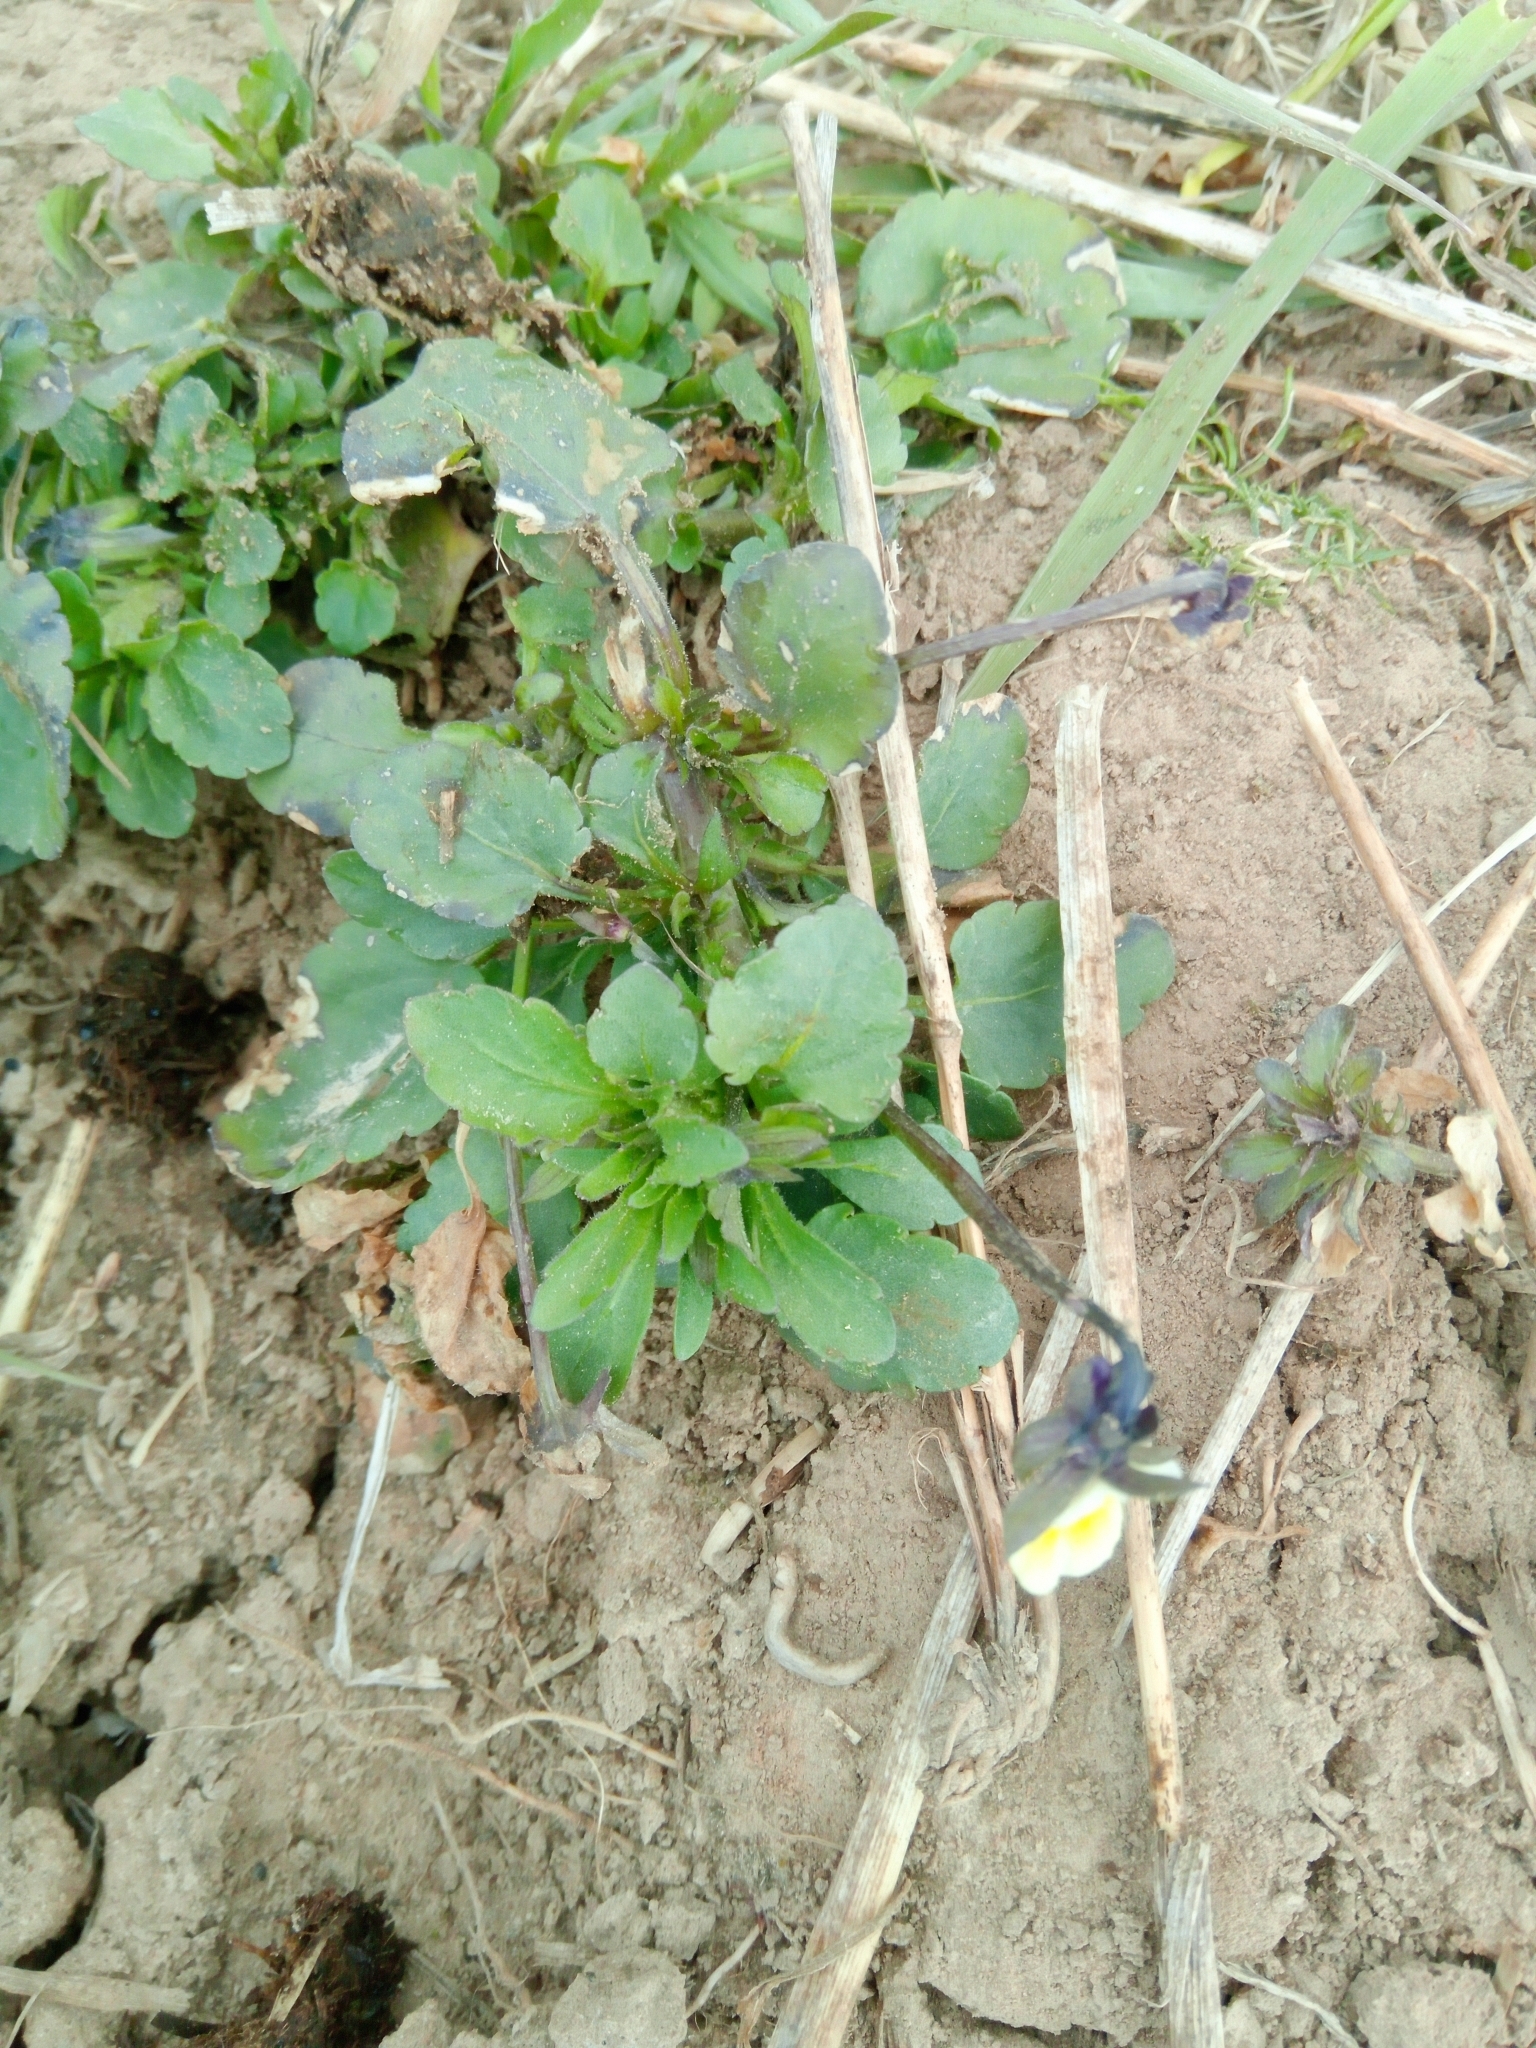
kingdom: Plantae
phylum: Tracheophyta
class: Magnoliopsida
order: Malpighiales
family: Violaceae
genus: Viola
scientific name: Viola arvensis
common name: Field pansy
